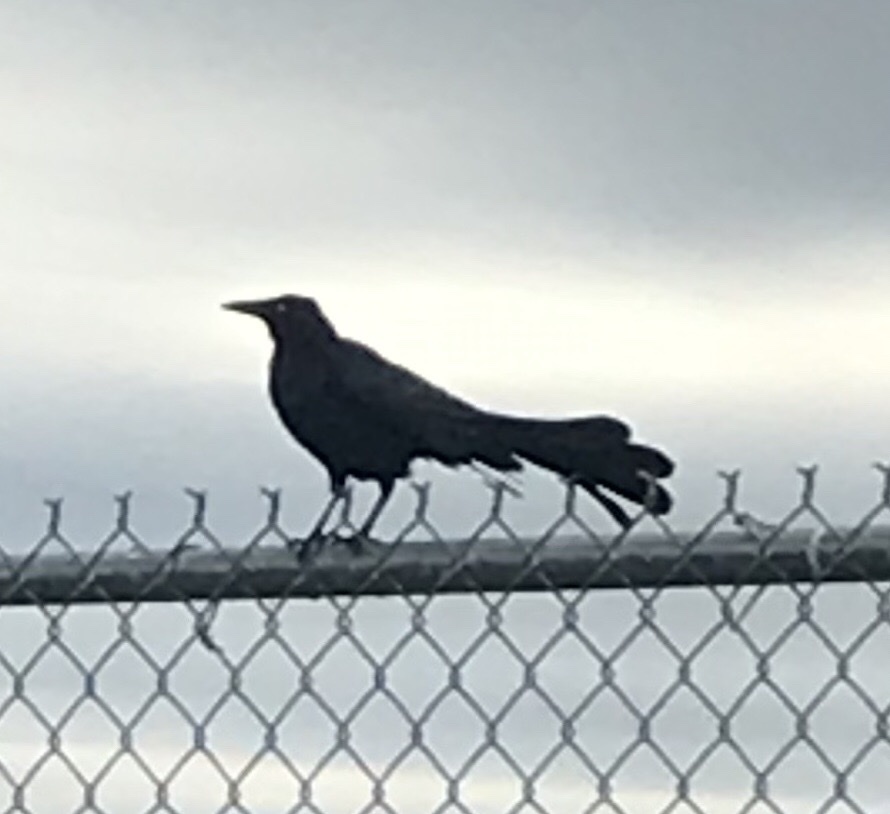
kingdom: Animalia
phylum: Chordata
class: Aves
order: Passeriformes
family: Icteridae
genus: Quiscalus
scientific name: Quiscalus mexicanus
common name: Great-tailed grackle
